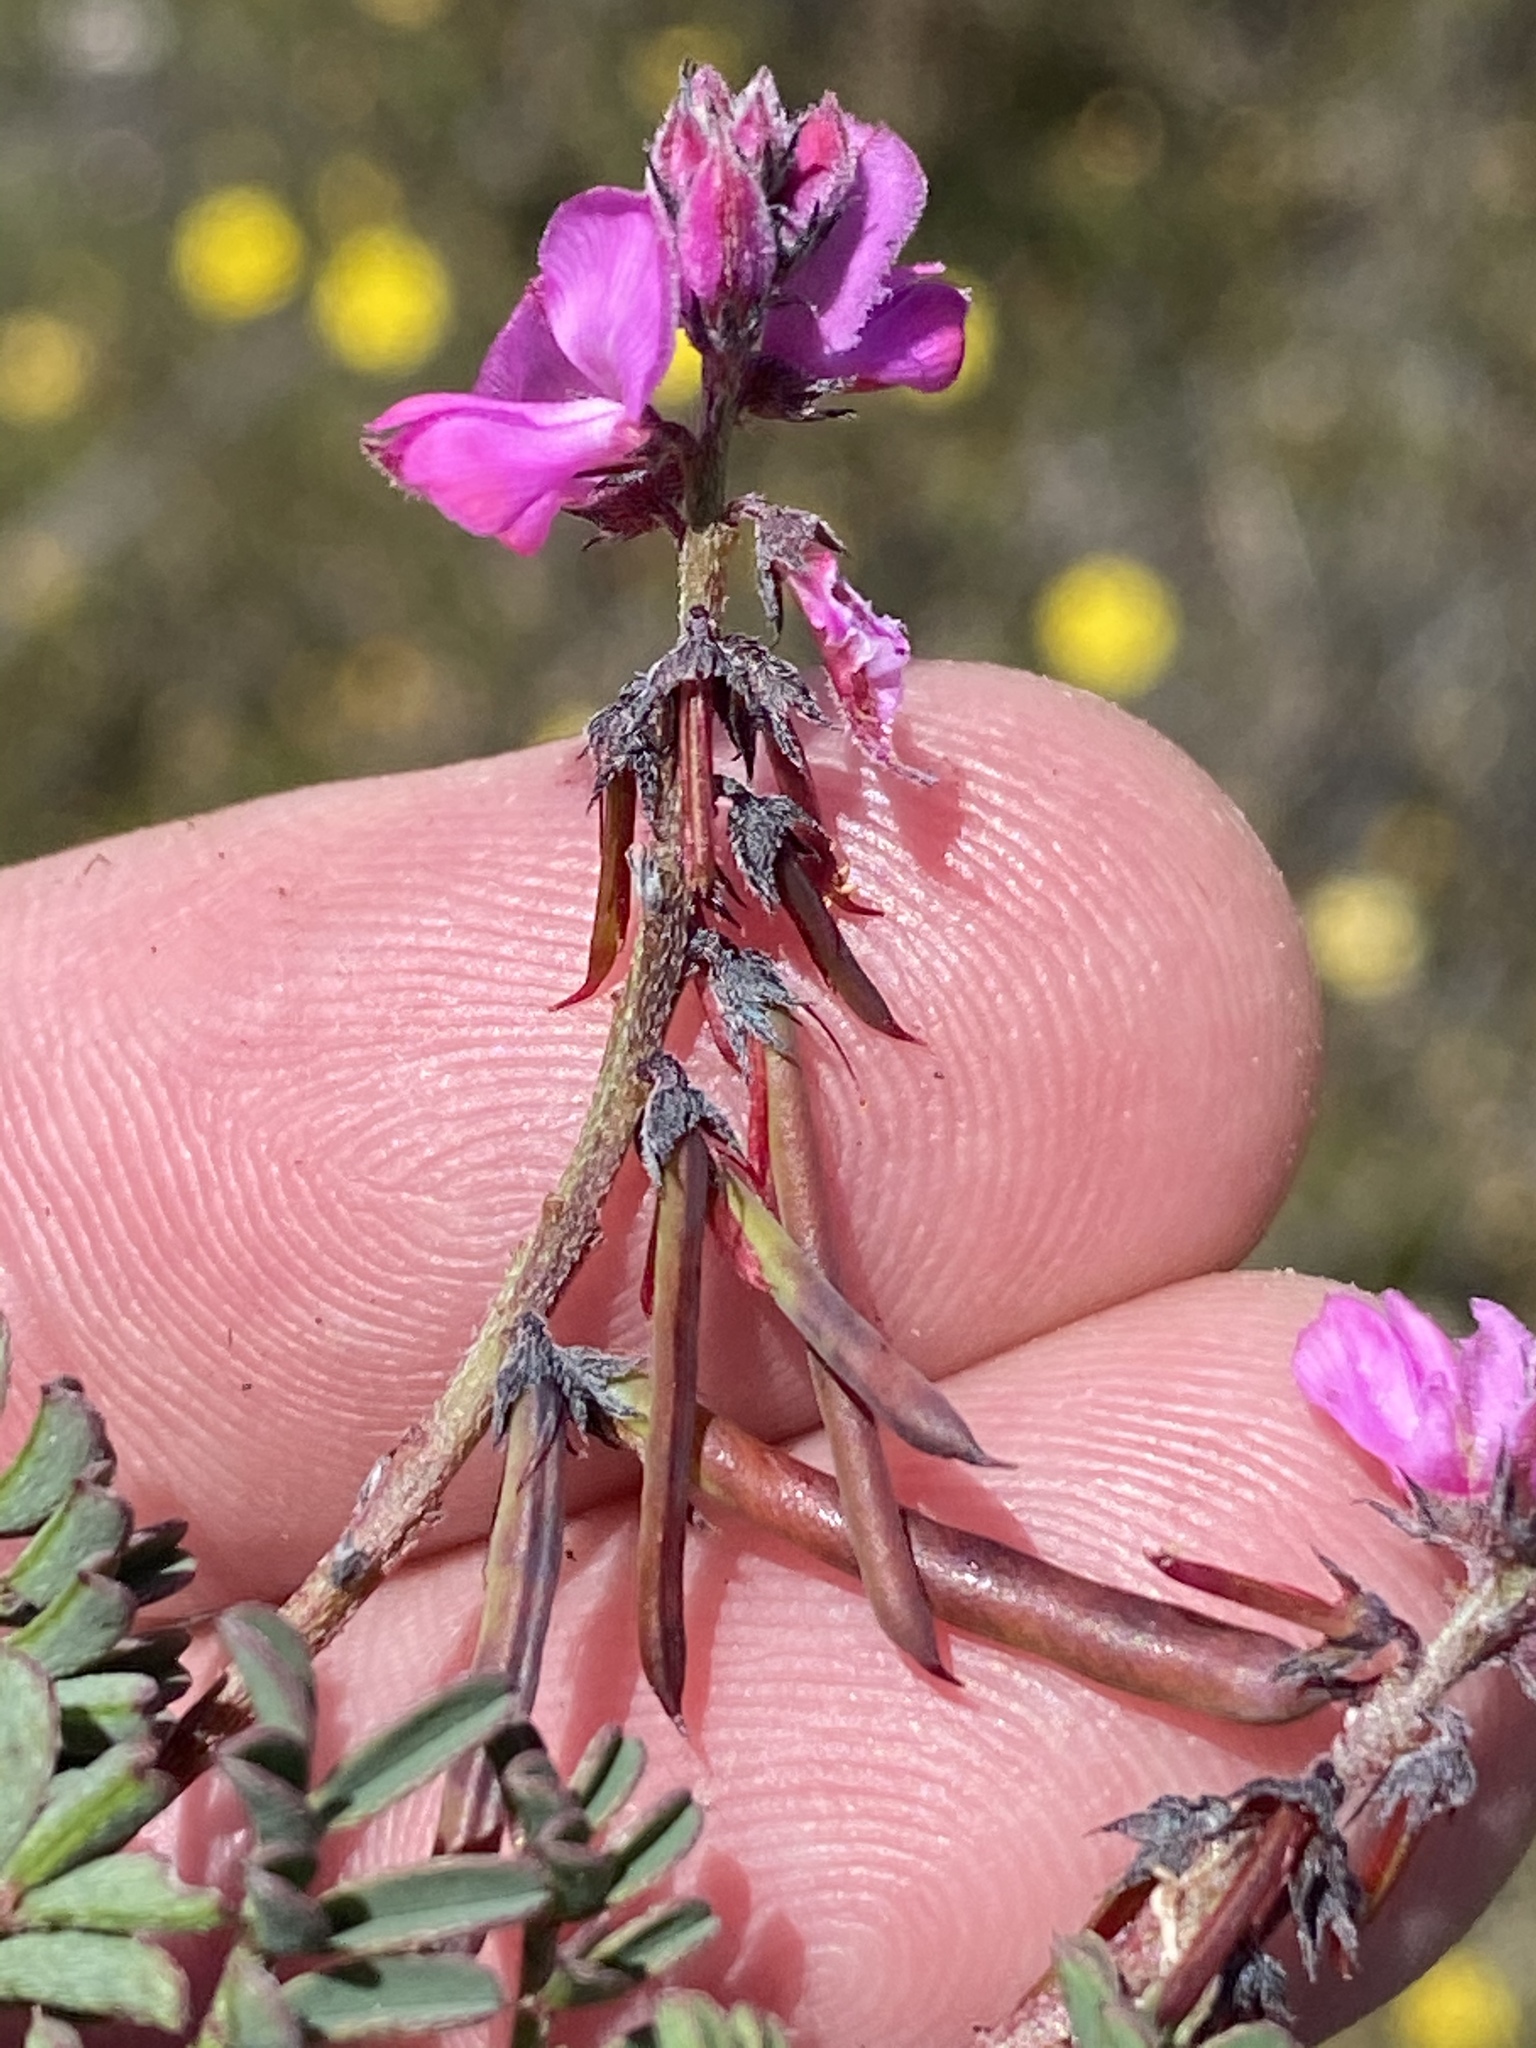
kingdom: Plantae
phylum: Tracheophyta
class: Magnoliopsida
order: Fabales
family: Fabaceae
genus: Indigofera
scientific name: Indigofera declinata
